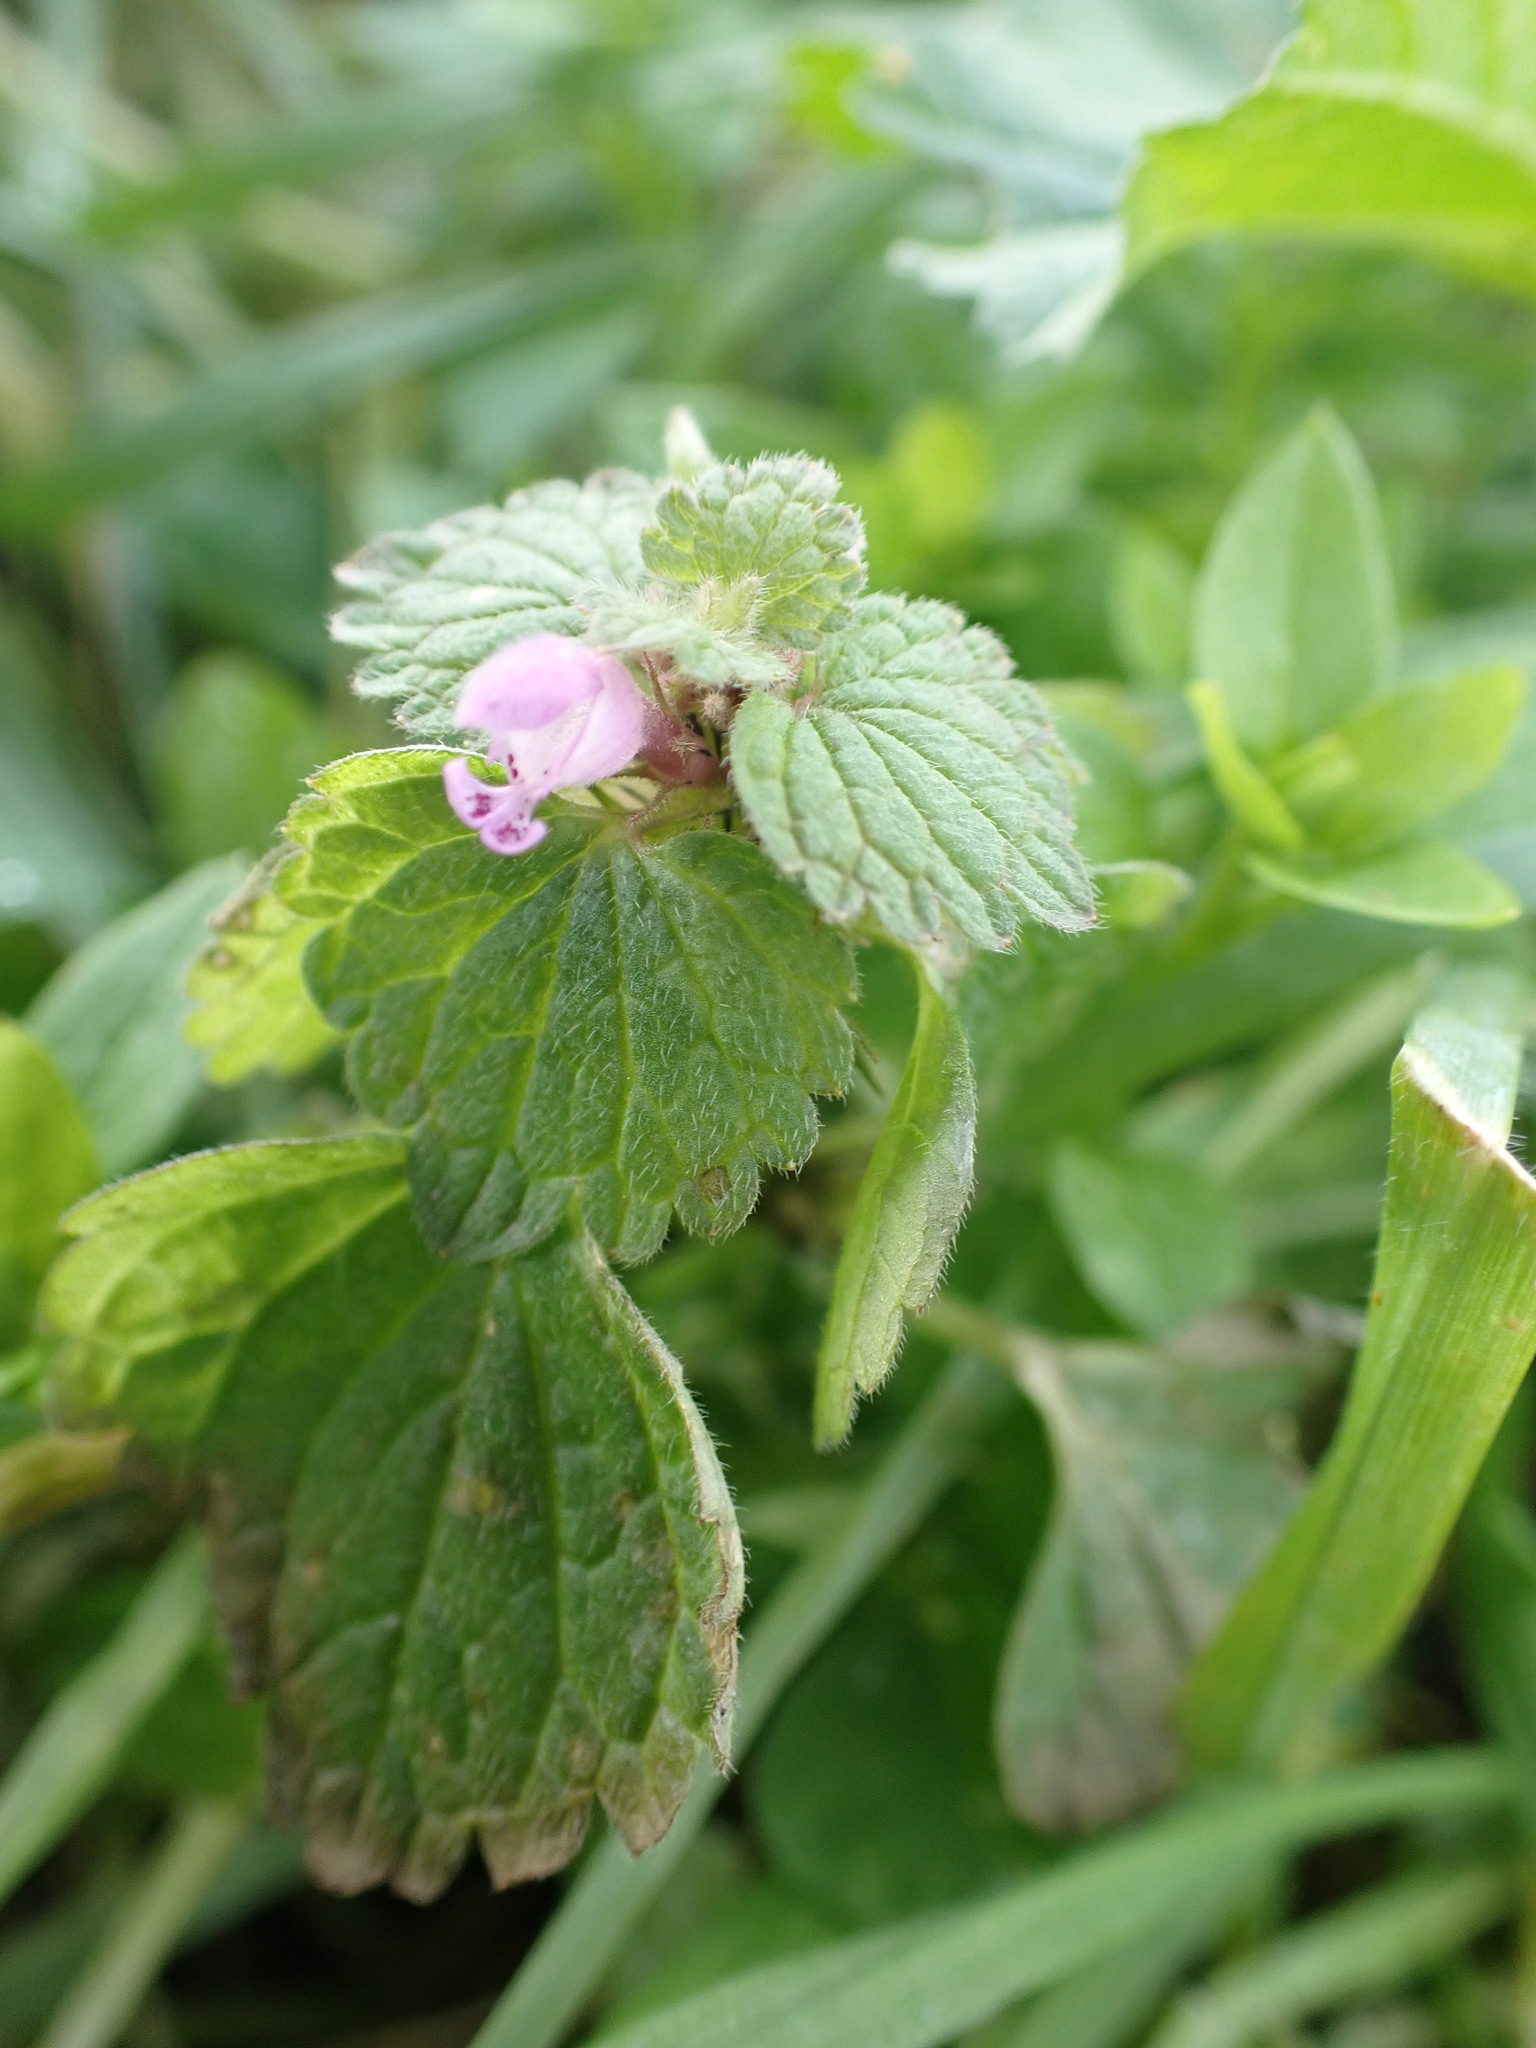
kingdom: Plantae
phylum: Tracheophyta
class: Magnoliopsida
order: Lamiales
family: Lamiaceae
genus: Lamium
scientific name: Lamium purpureum
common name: Red dead-nettle
